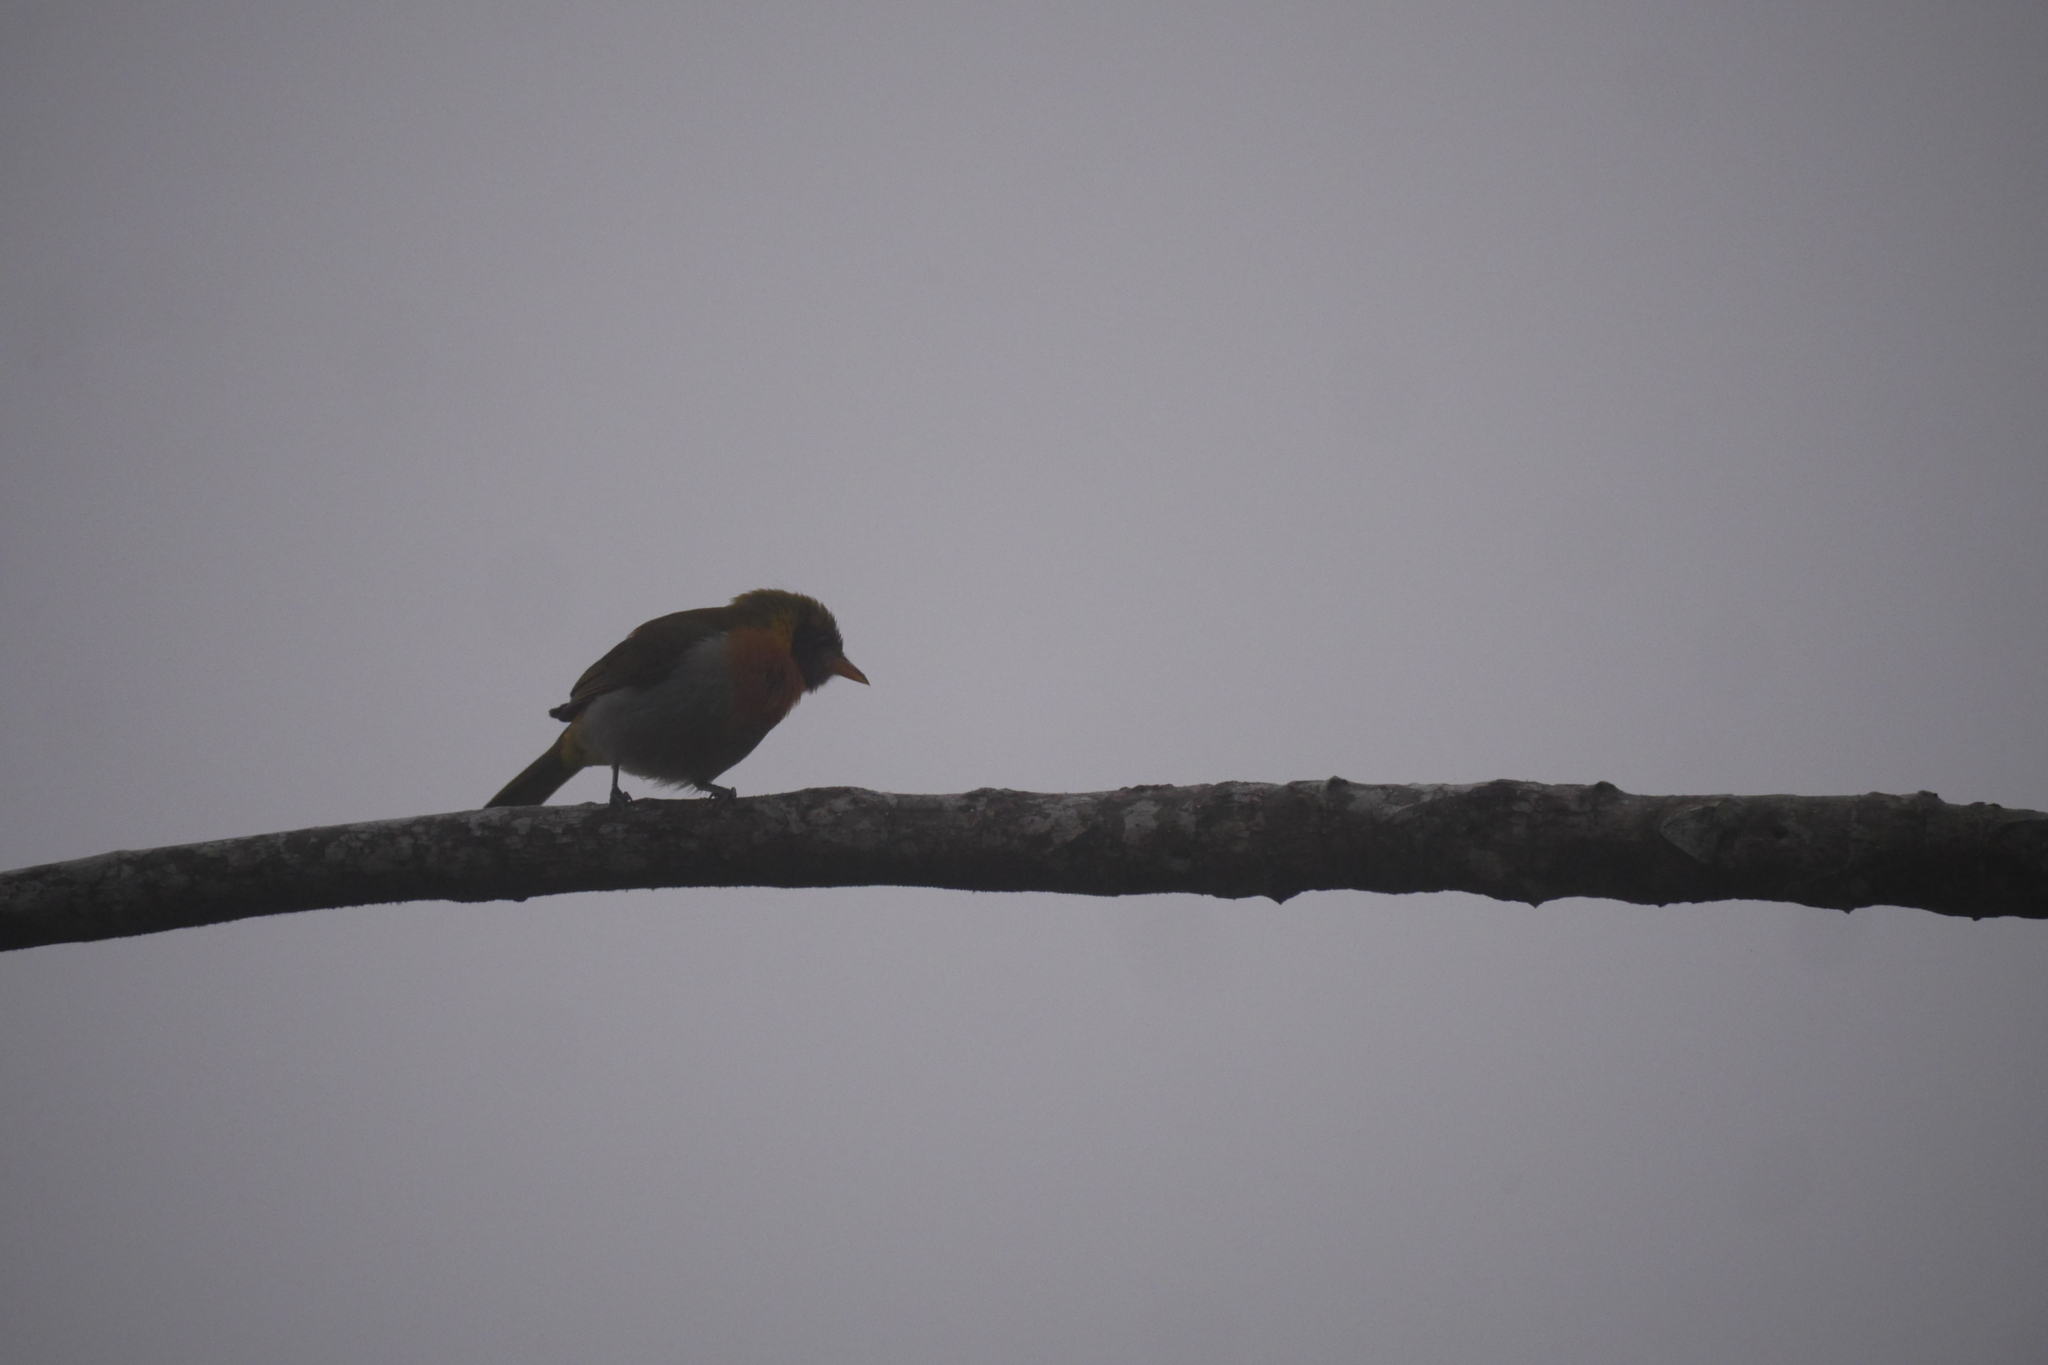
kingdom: Animalia
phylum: Chordata
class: Aves
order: Passeriformes
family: Thraupidae
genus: Hemithraupis
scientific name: Hemithraupis guira
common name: Guira tanager
